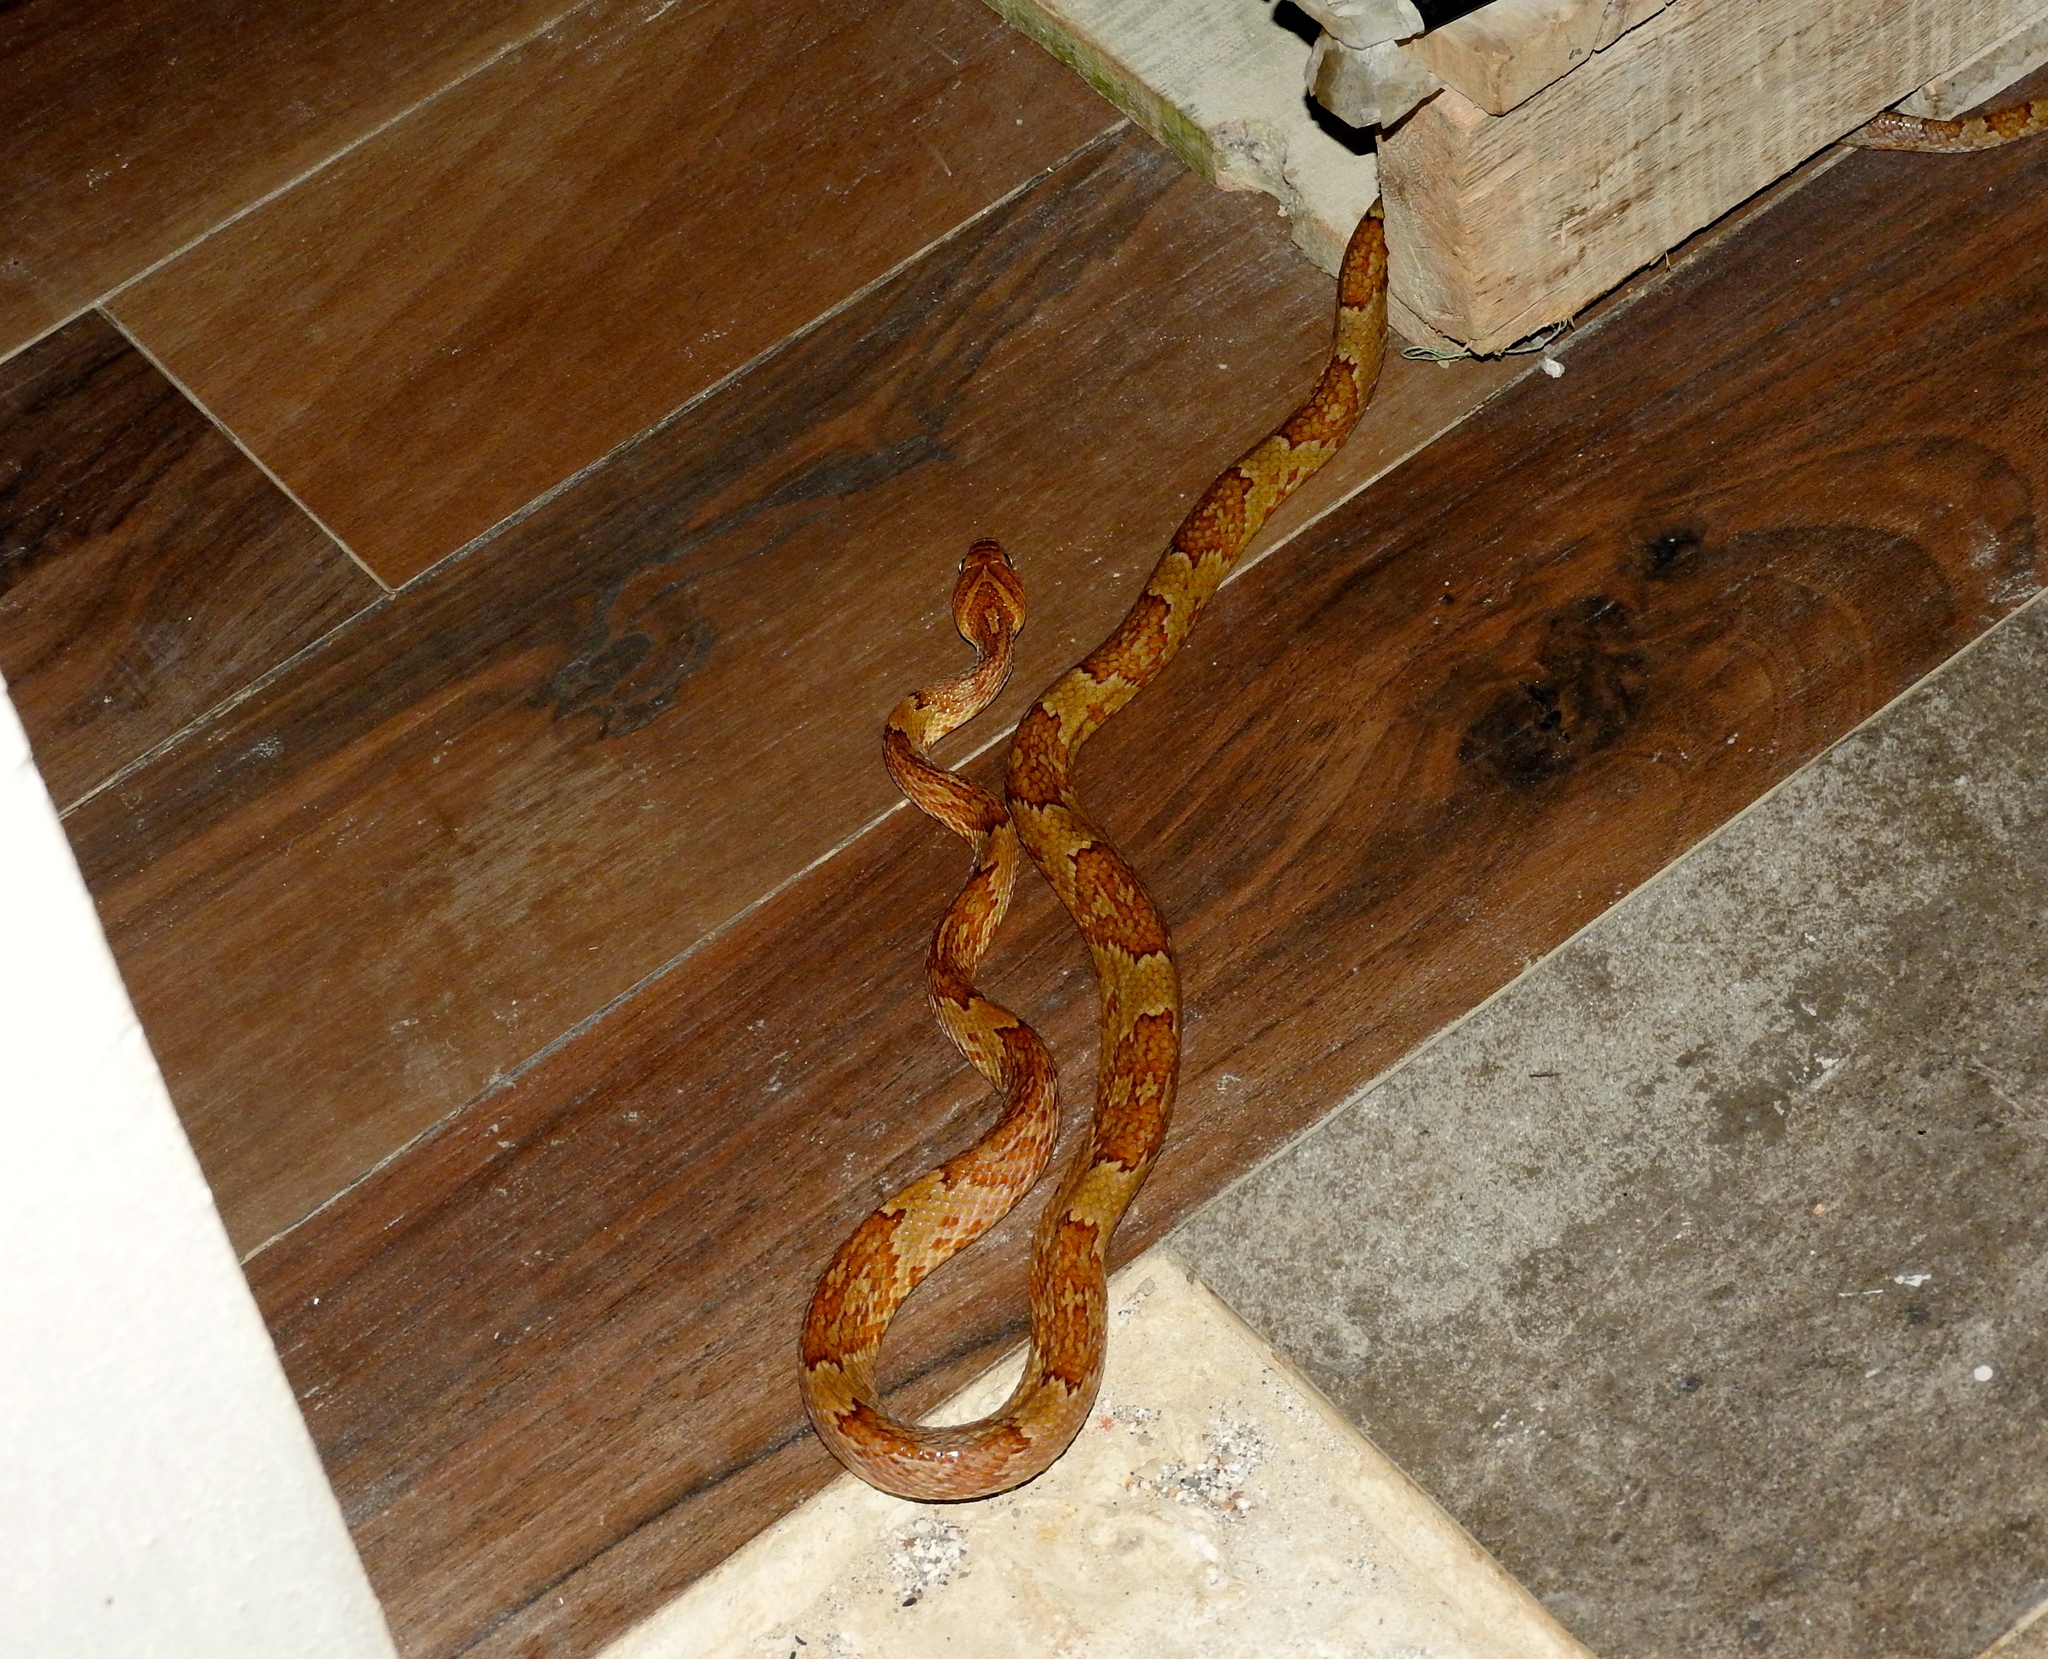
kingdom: Animalia
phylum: Chordata
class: Squamata
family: Colubridae
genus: Trimorphodon
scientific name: Trimorphodon paucimaculatus
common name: Sinaloan lyresnake
